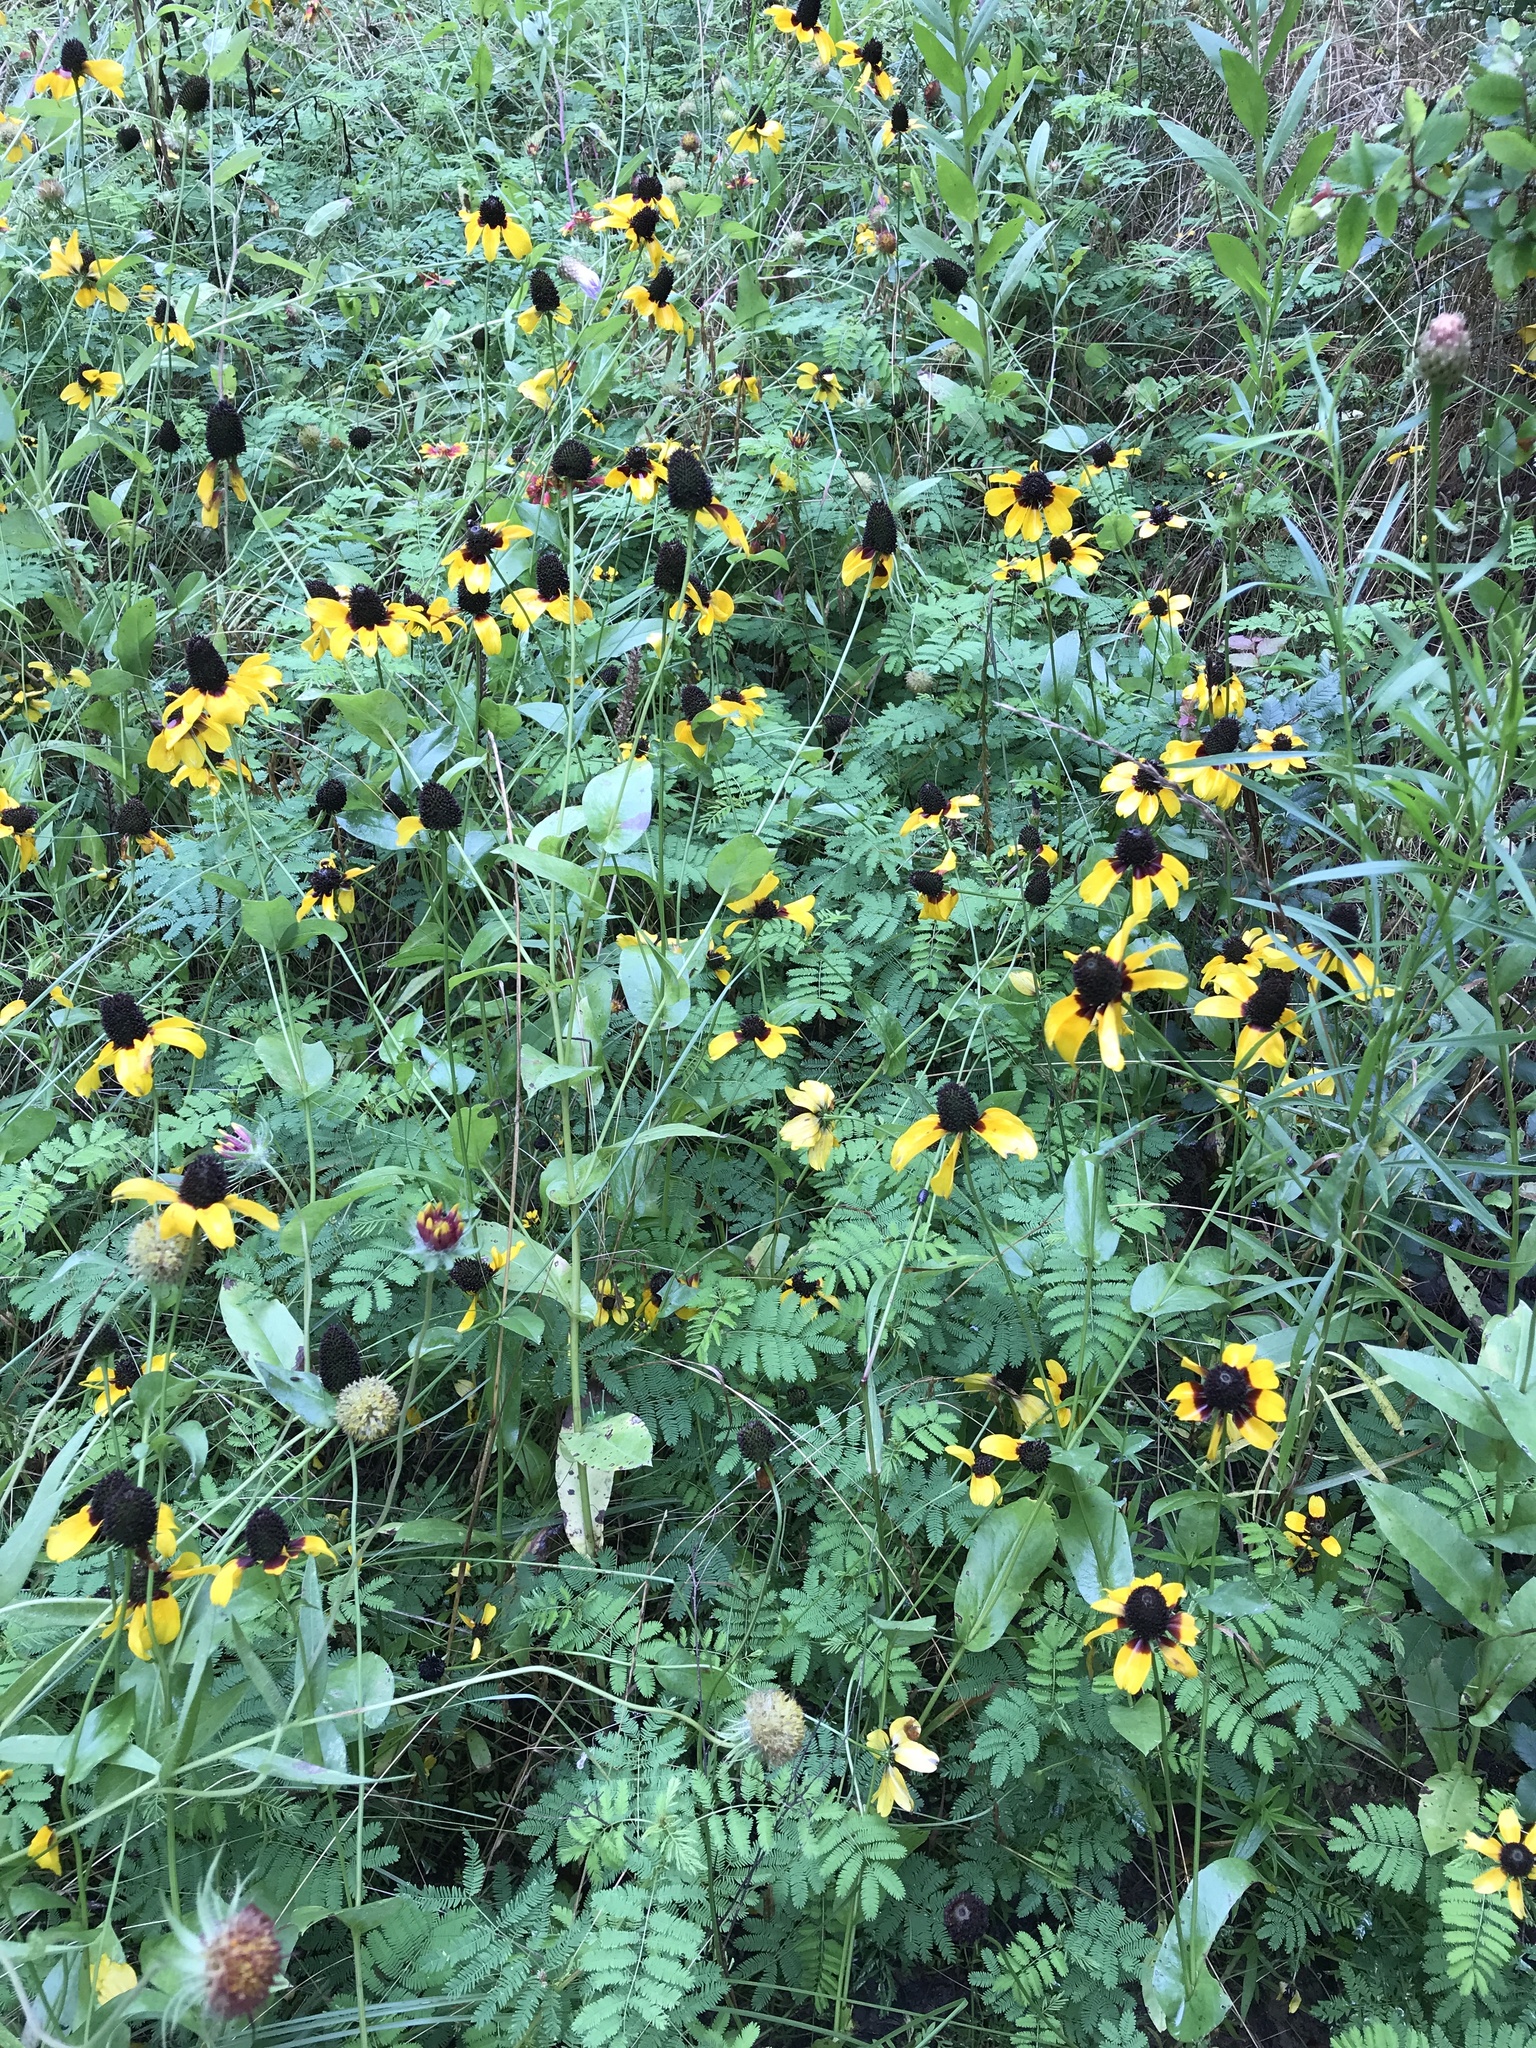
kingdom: Plantae
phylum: Tracheophyta
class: Magnoliopsida
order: Asterales
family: Asteraceae
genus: Rudbeckia
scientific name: Rudbeckia amplexicaulis
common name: Clasping-leaf coneflower
